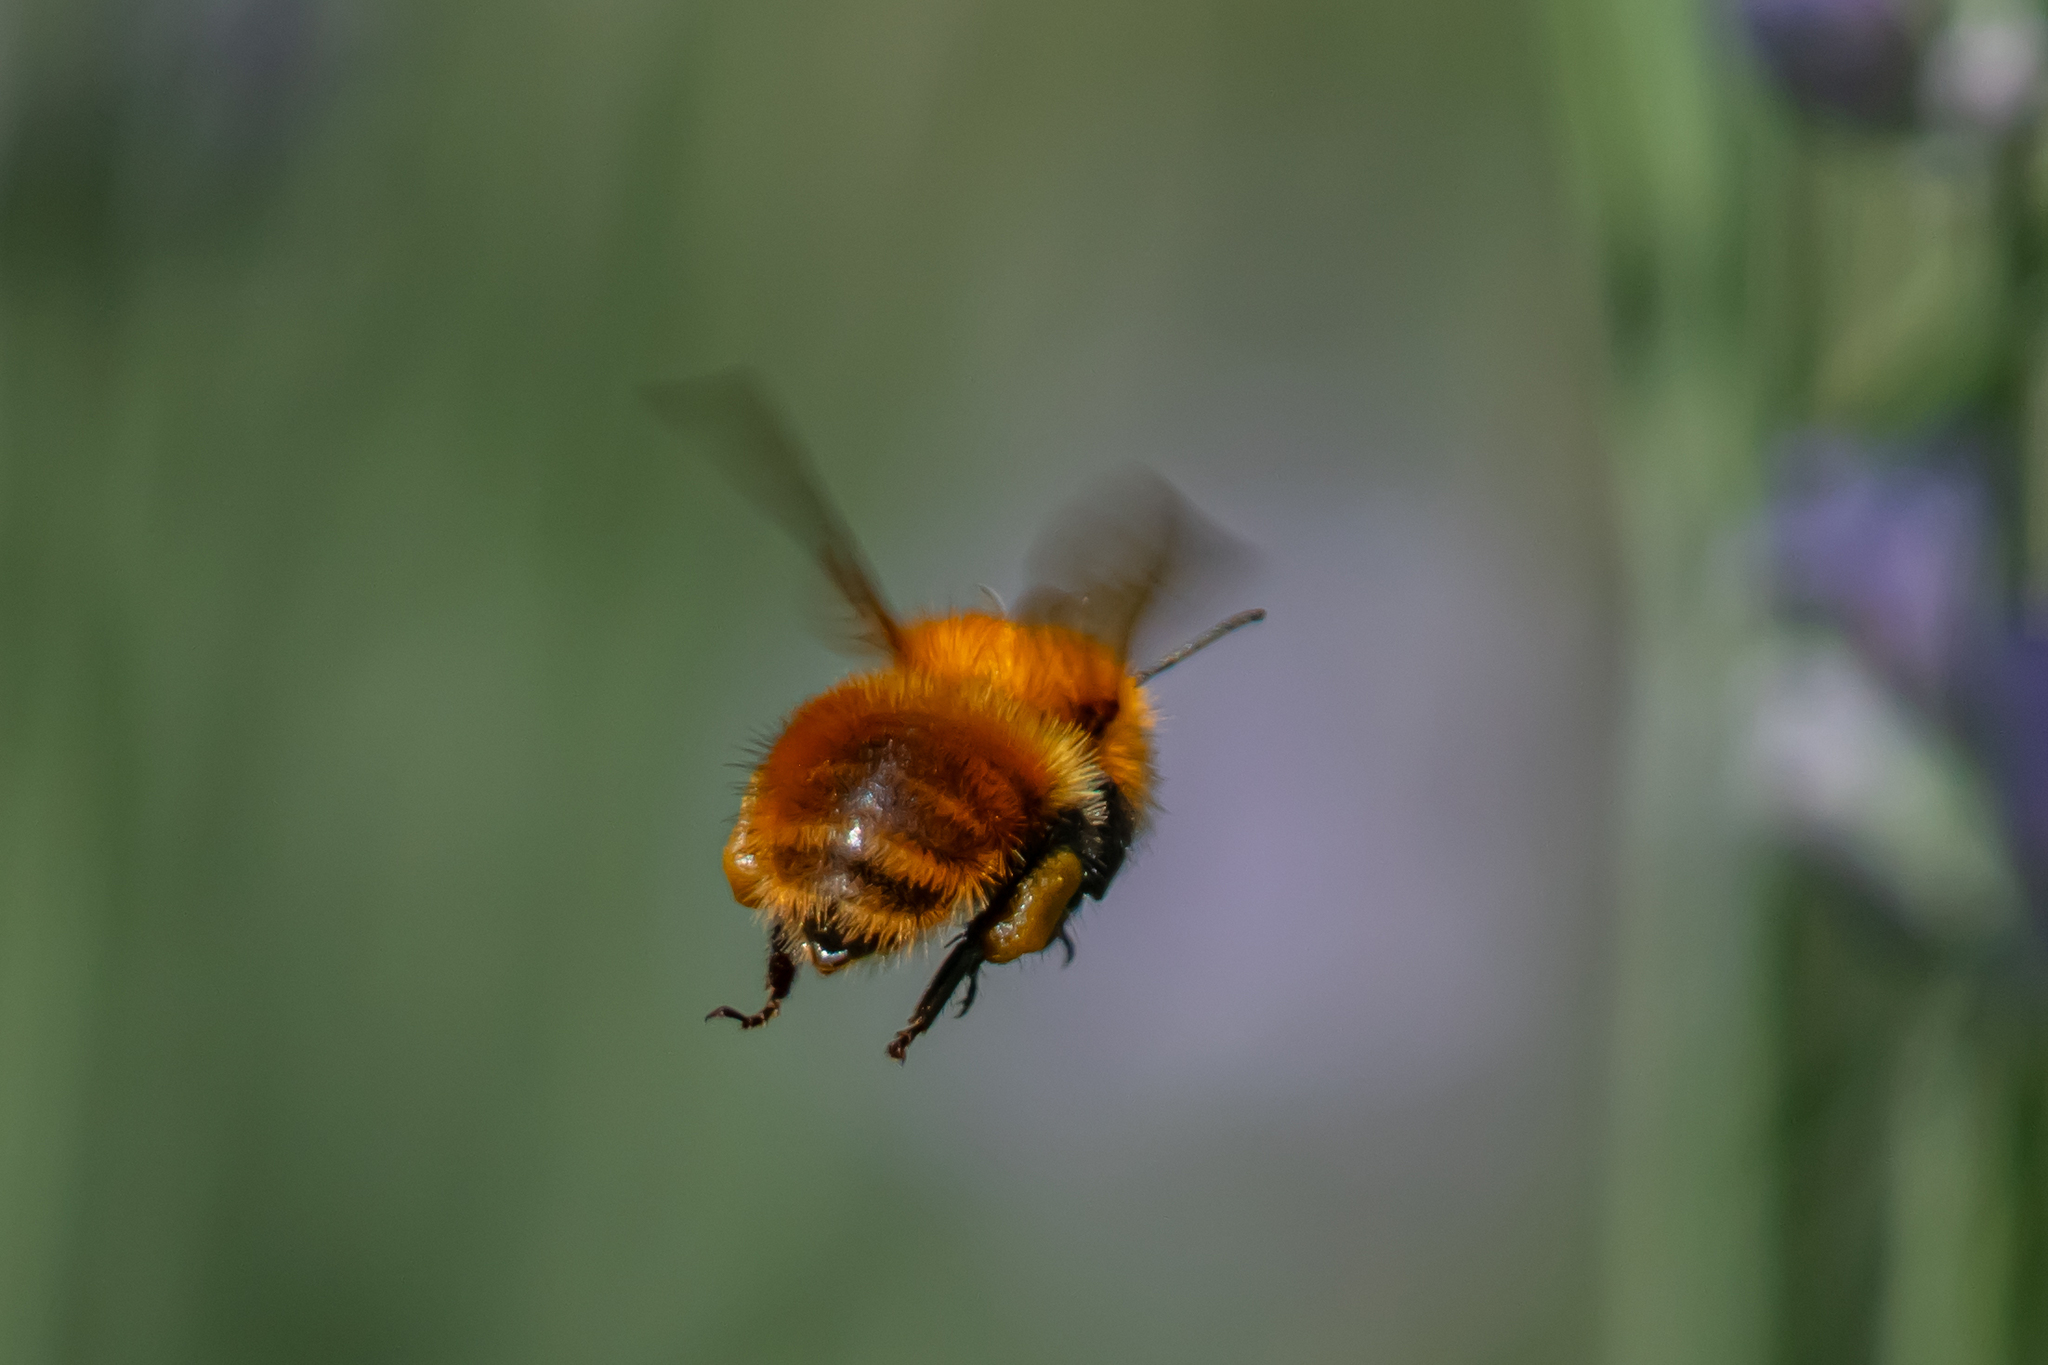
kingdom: Animalia
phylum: Arthropoda
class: Insecta
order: Hymenoptera
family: Apidae
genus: Bombus
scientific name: Bombus pascuorum
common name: Common carder bee
